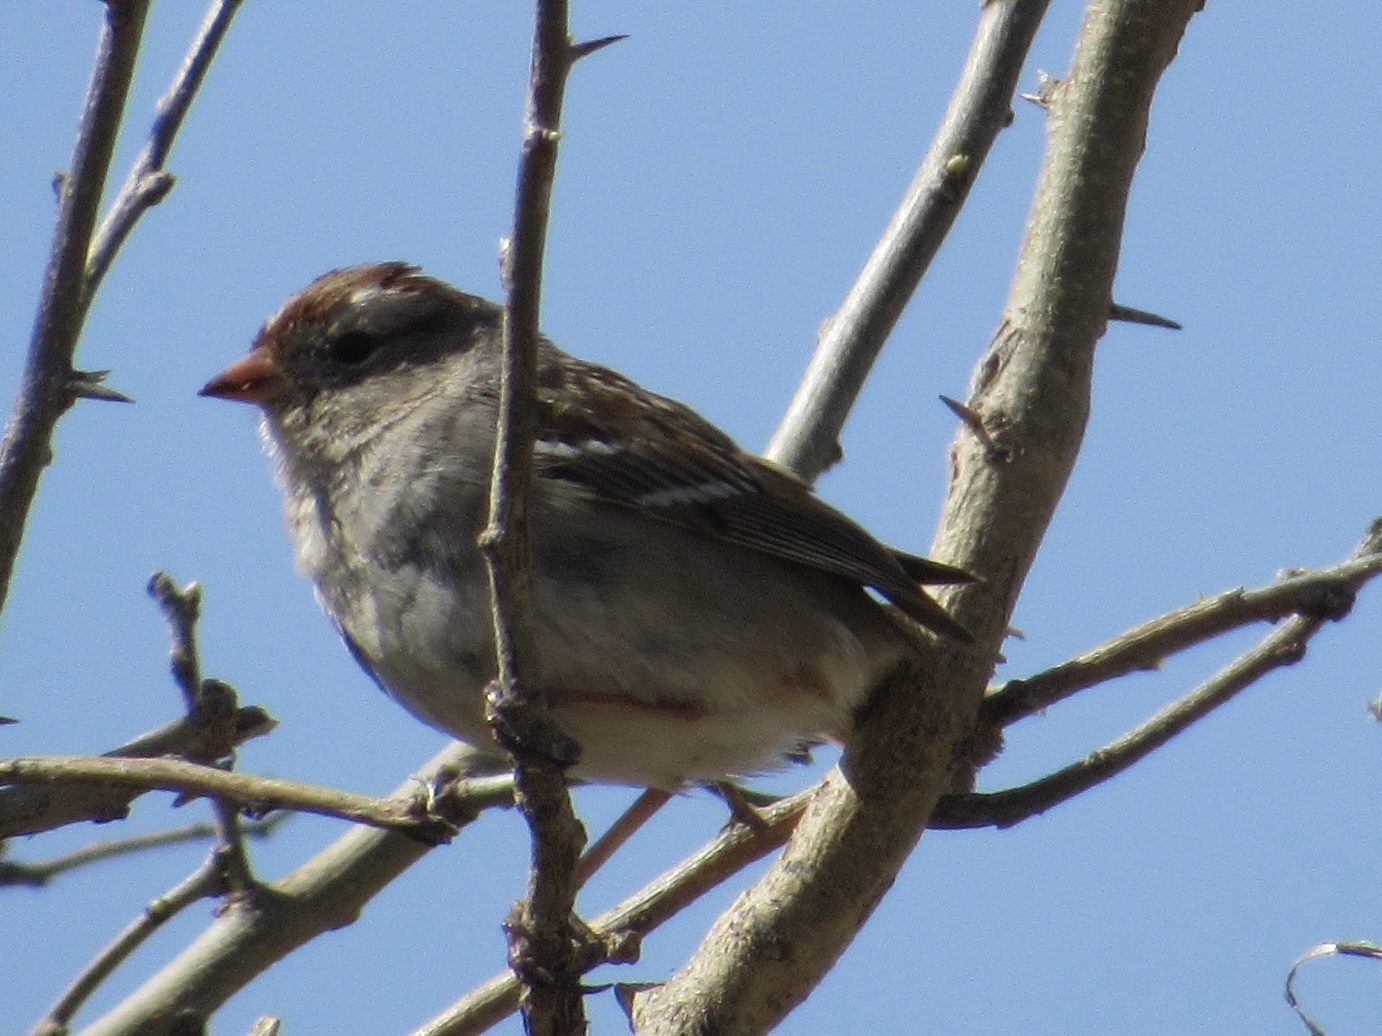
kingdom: Animalia
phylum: Chordata
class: Aves
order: Passeriformes
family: Passerellidae
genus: Zonotrichia
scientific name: Zonotrichia leucophrys
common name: White-crowned sparrow
